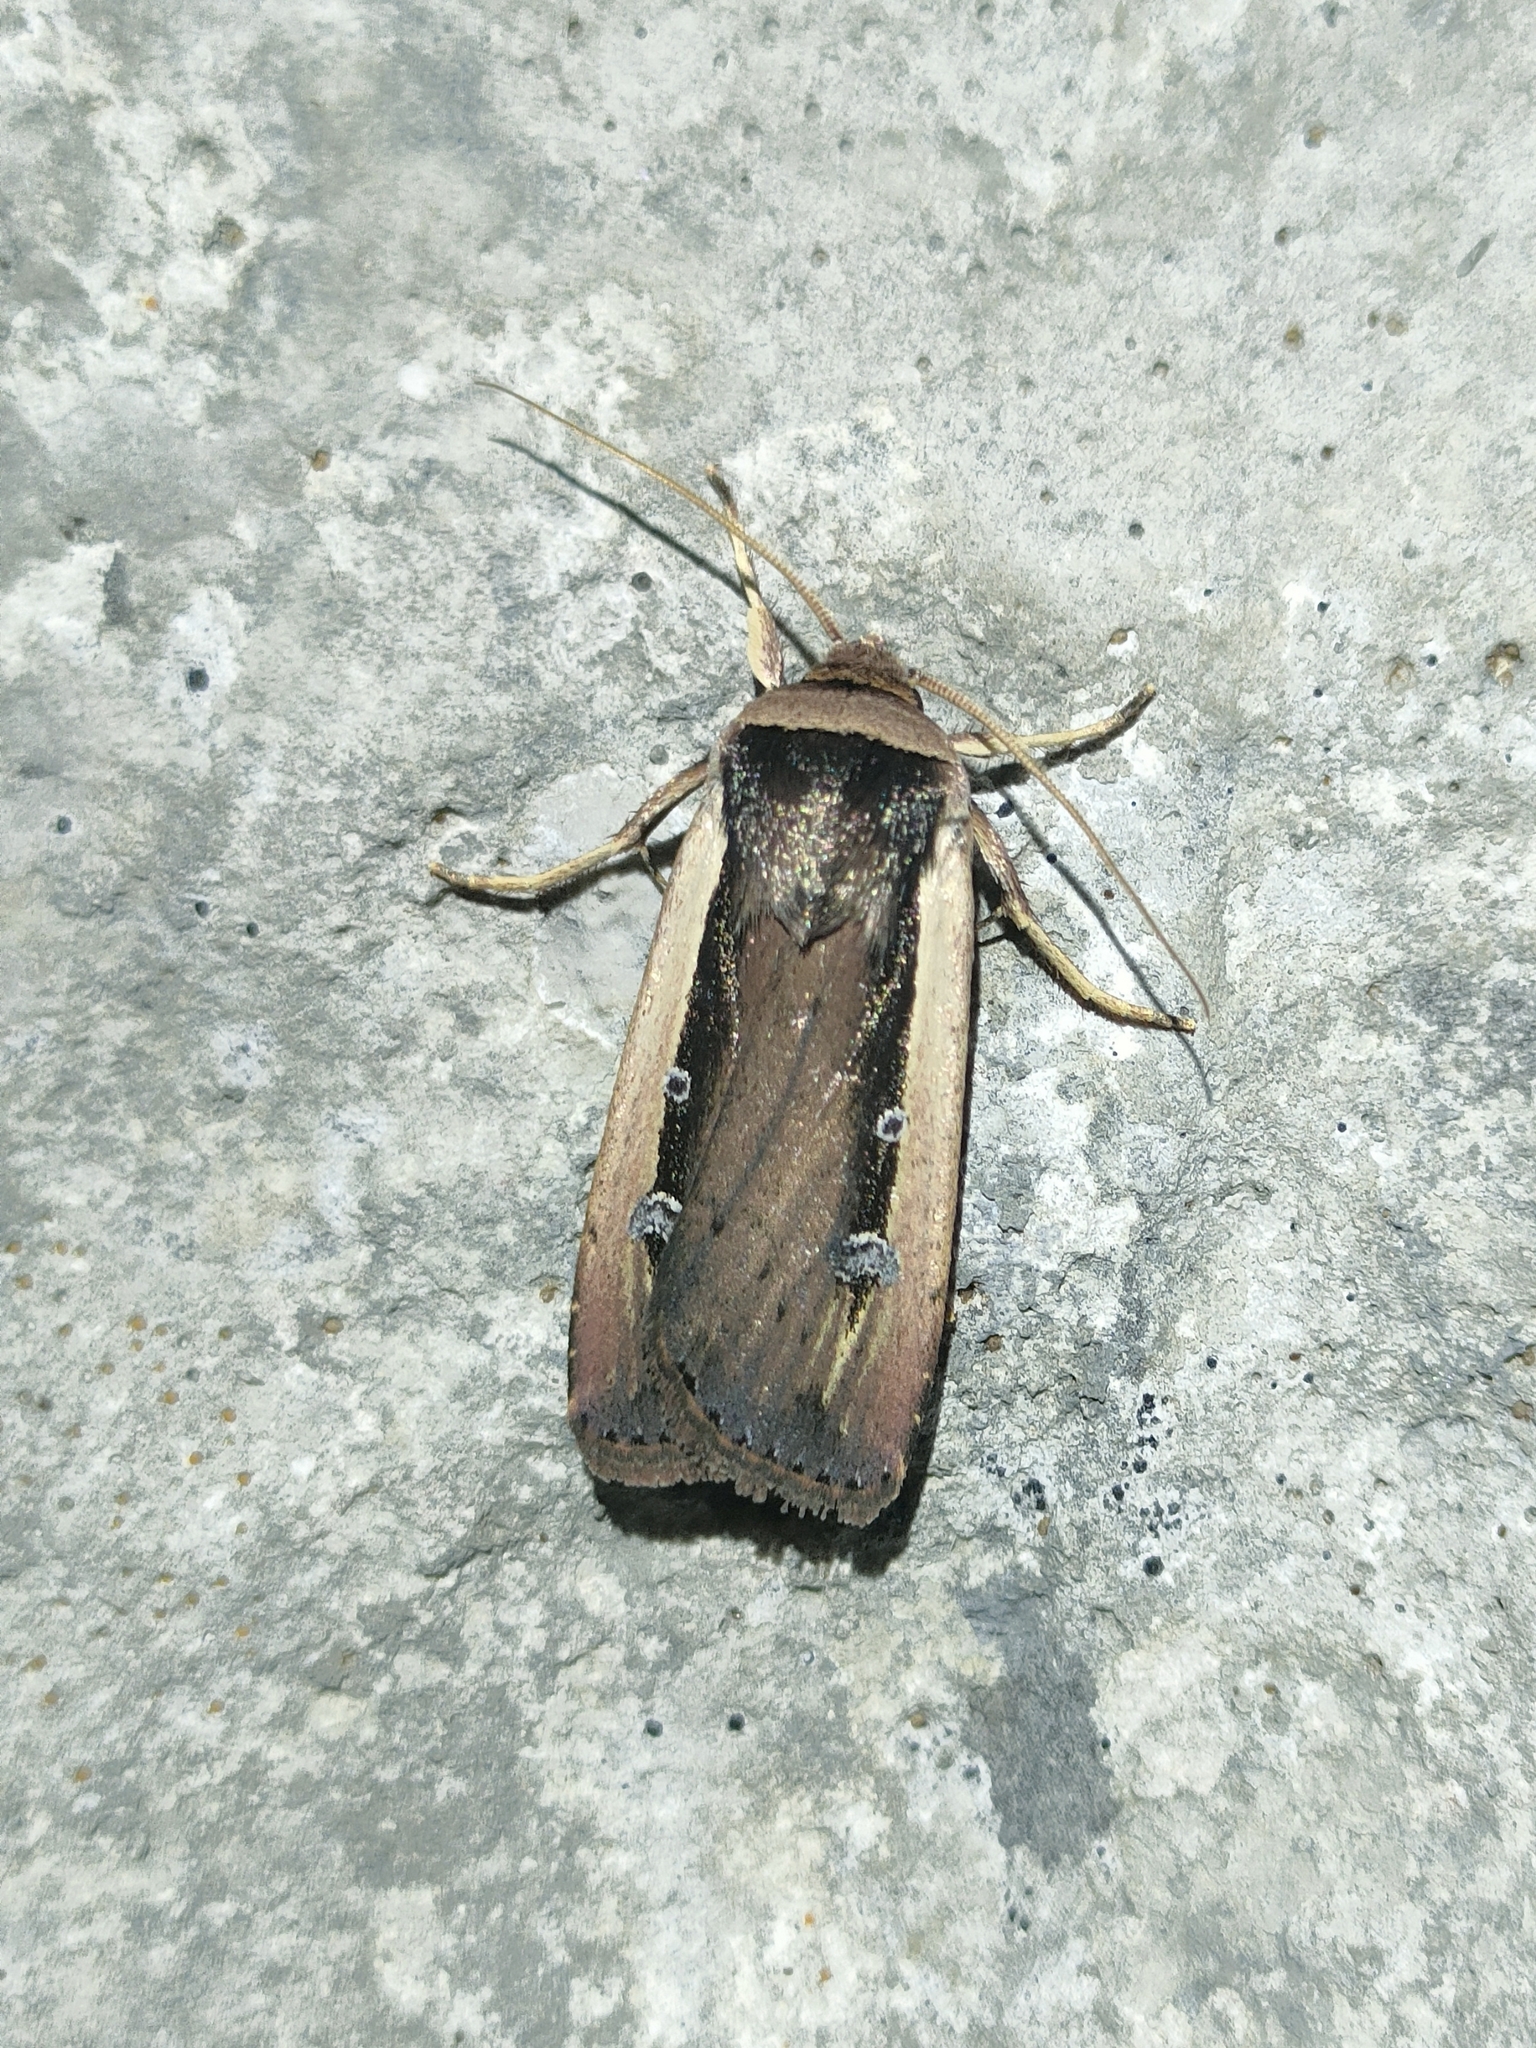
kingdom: Animalia
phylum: Arthropoda
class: Insecta
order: Lepidoptera
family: Noctuidae
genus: Ochropleura
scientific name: Ochropleura leucogaster
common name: Radford's flame shoulder
